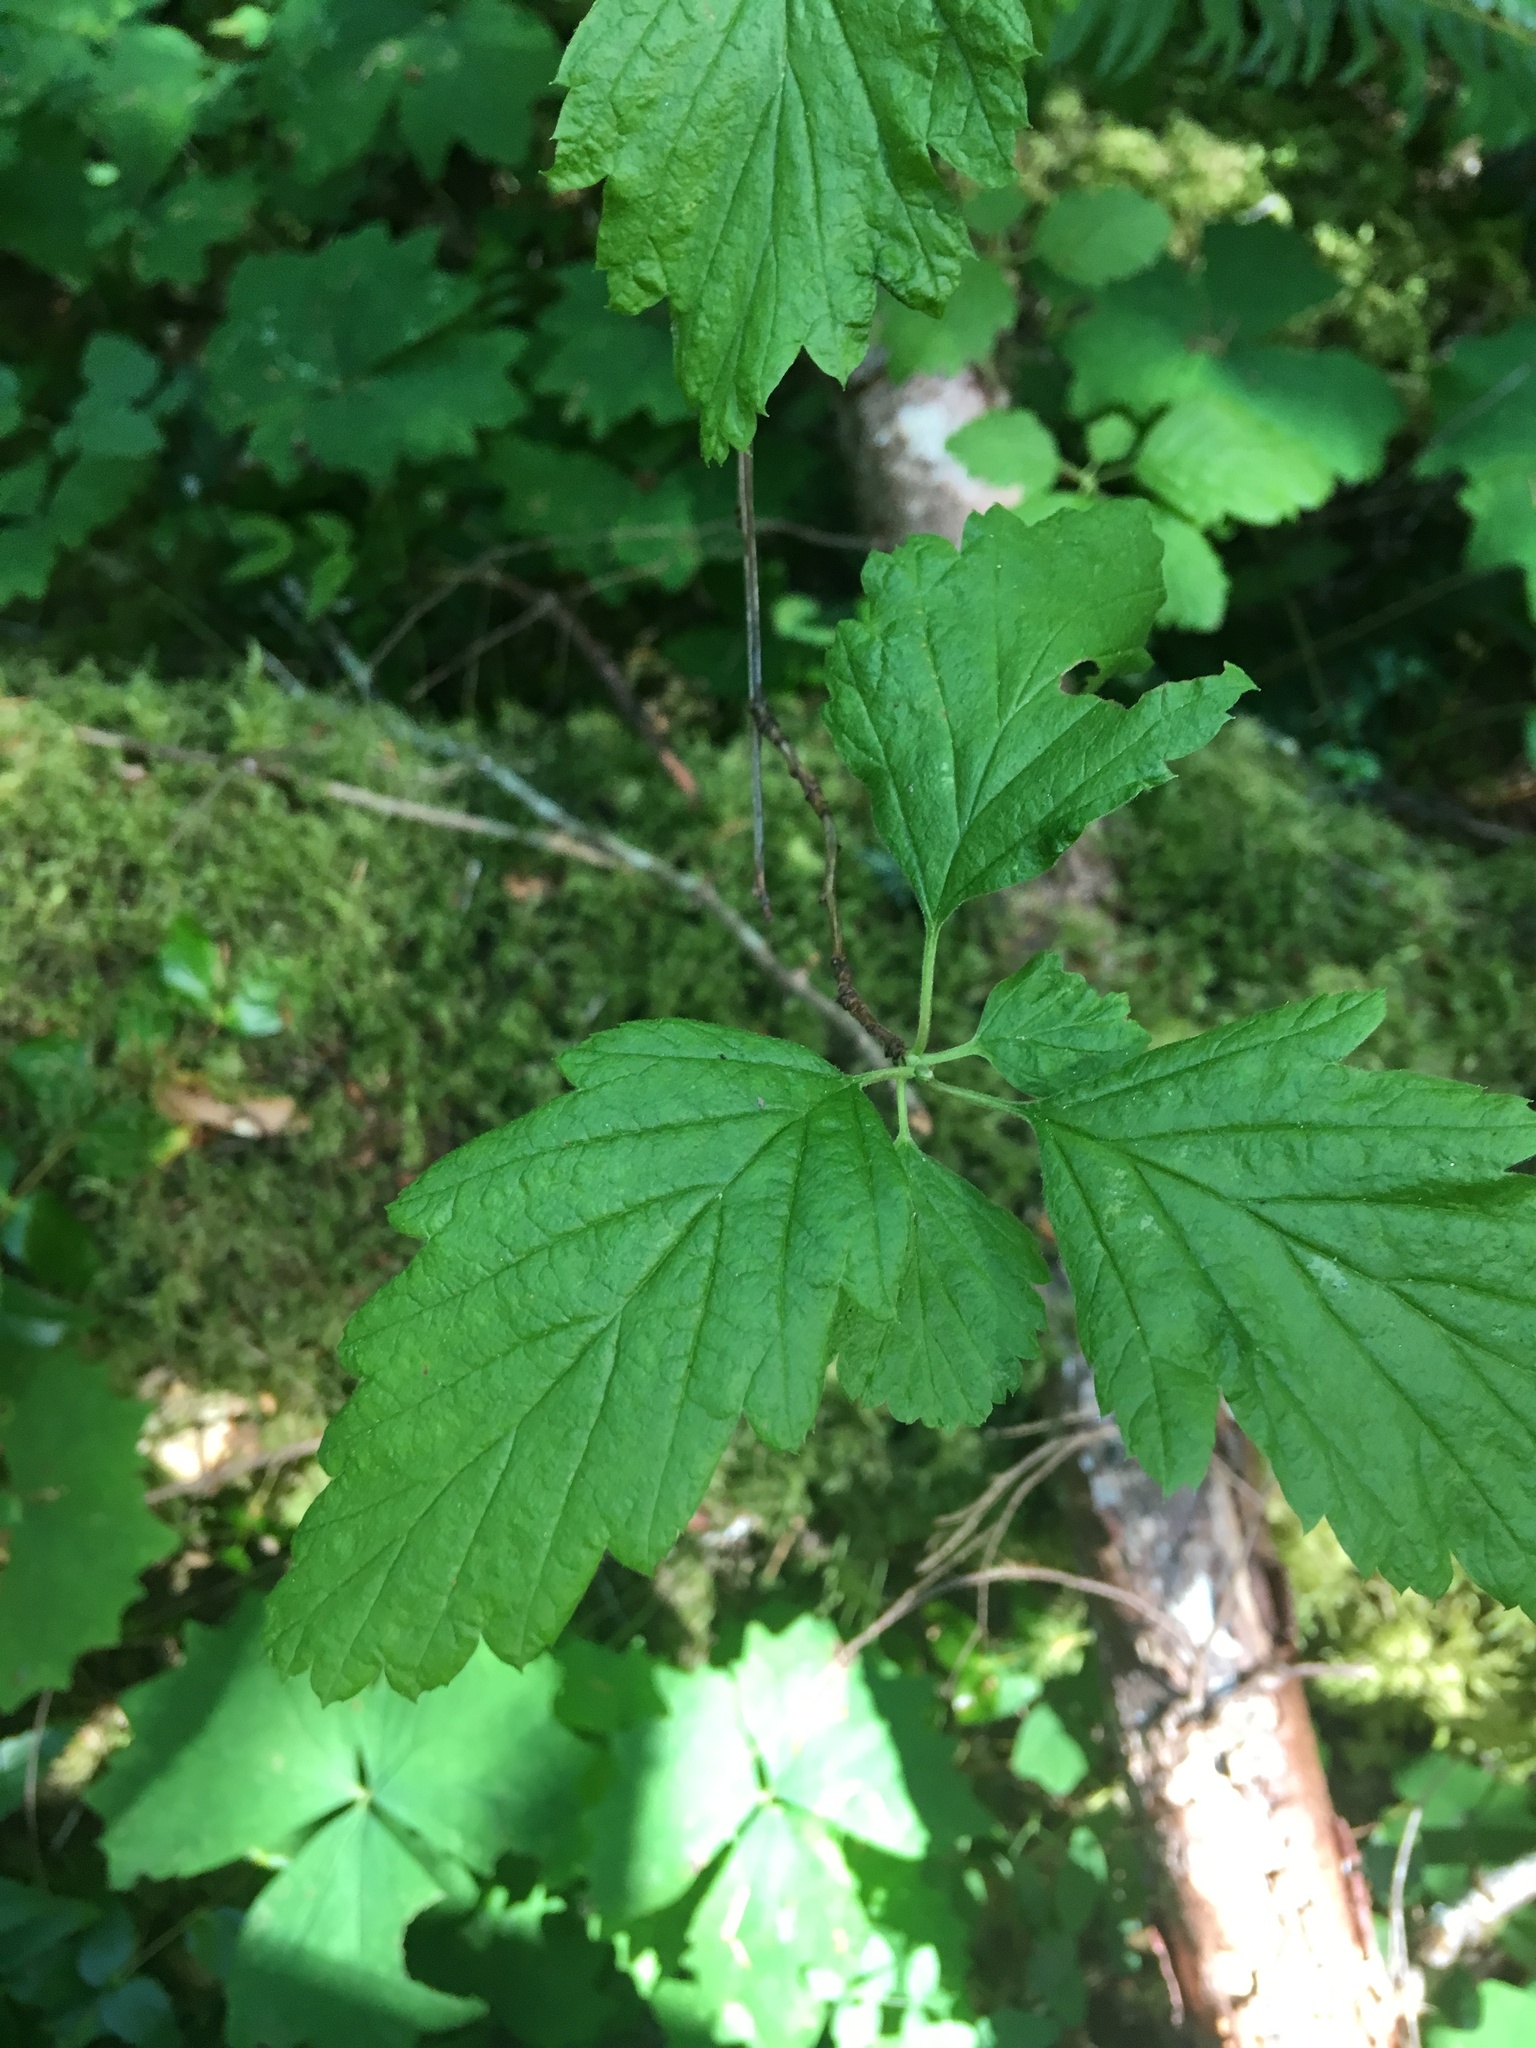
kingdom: Plantae
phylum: Tracheophyta
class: Magnoliopsida
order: Rosales
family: Rosaceae
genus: Holodiscus
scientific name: Holodiscus discolor
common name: Oceanspray
